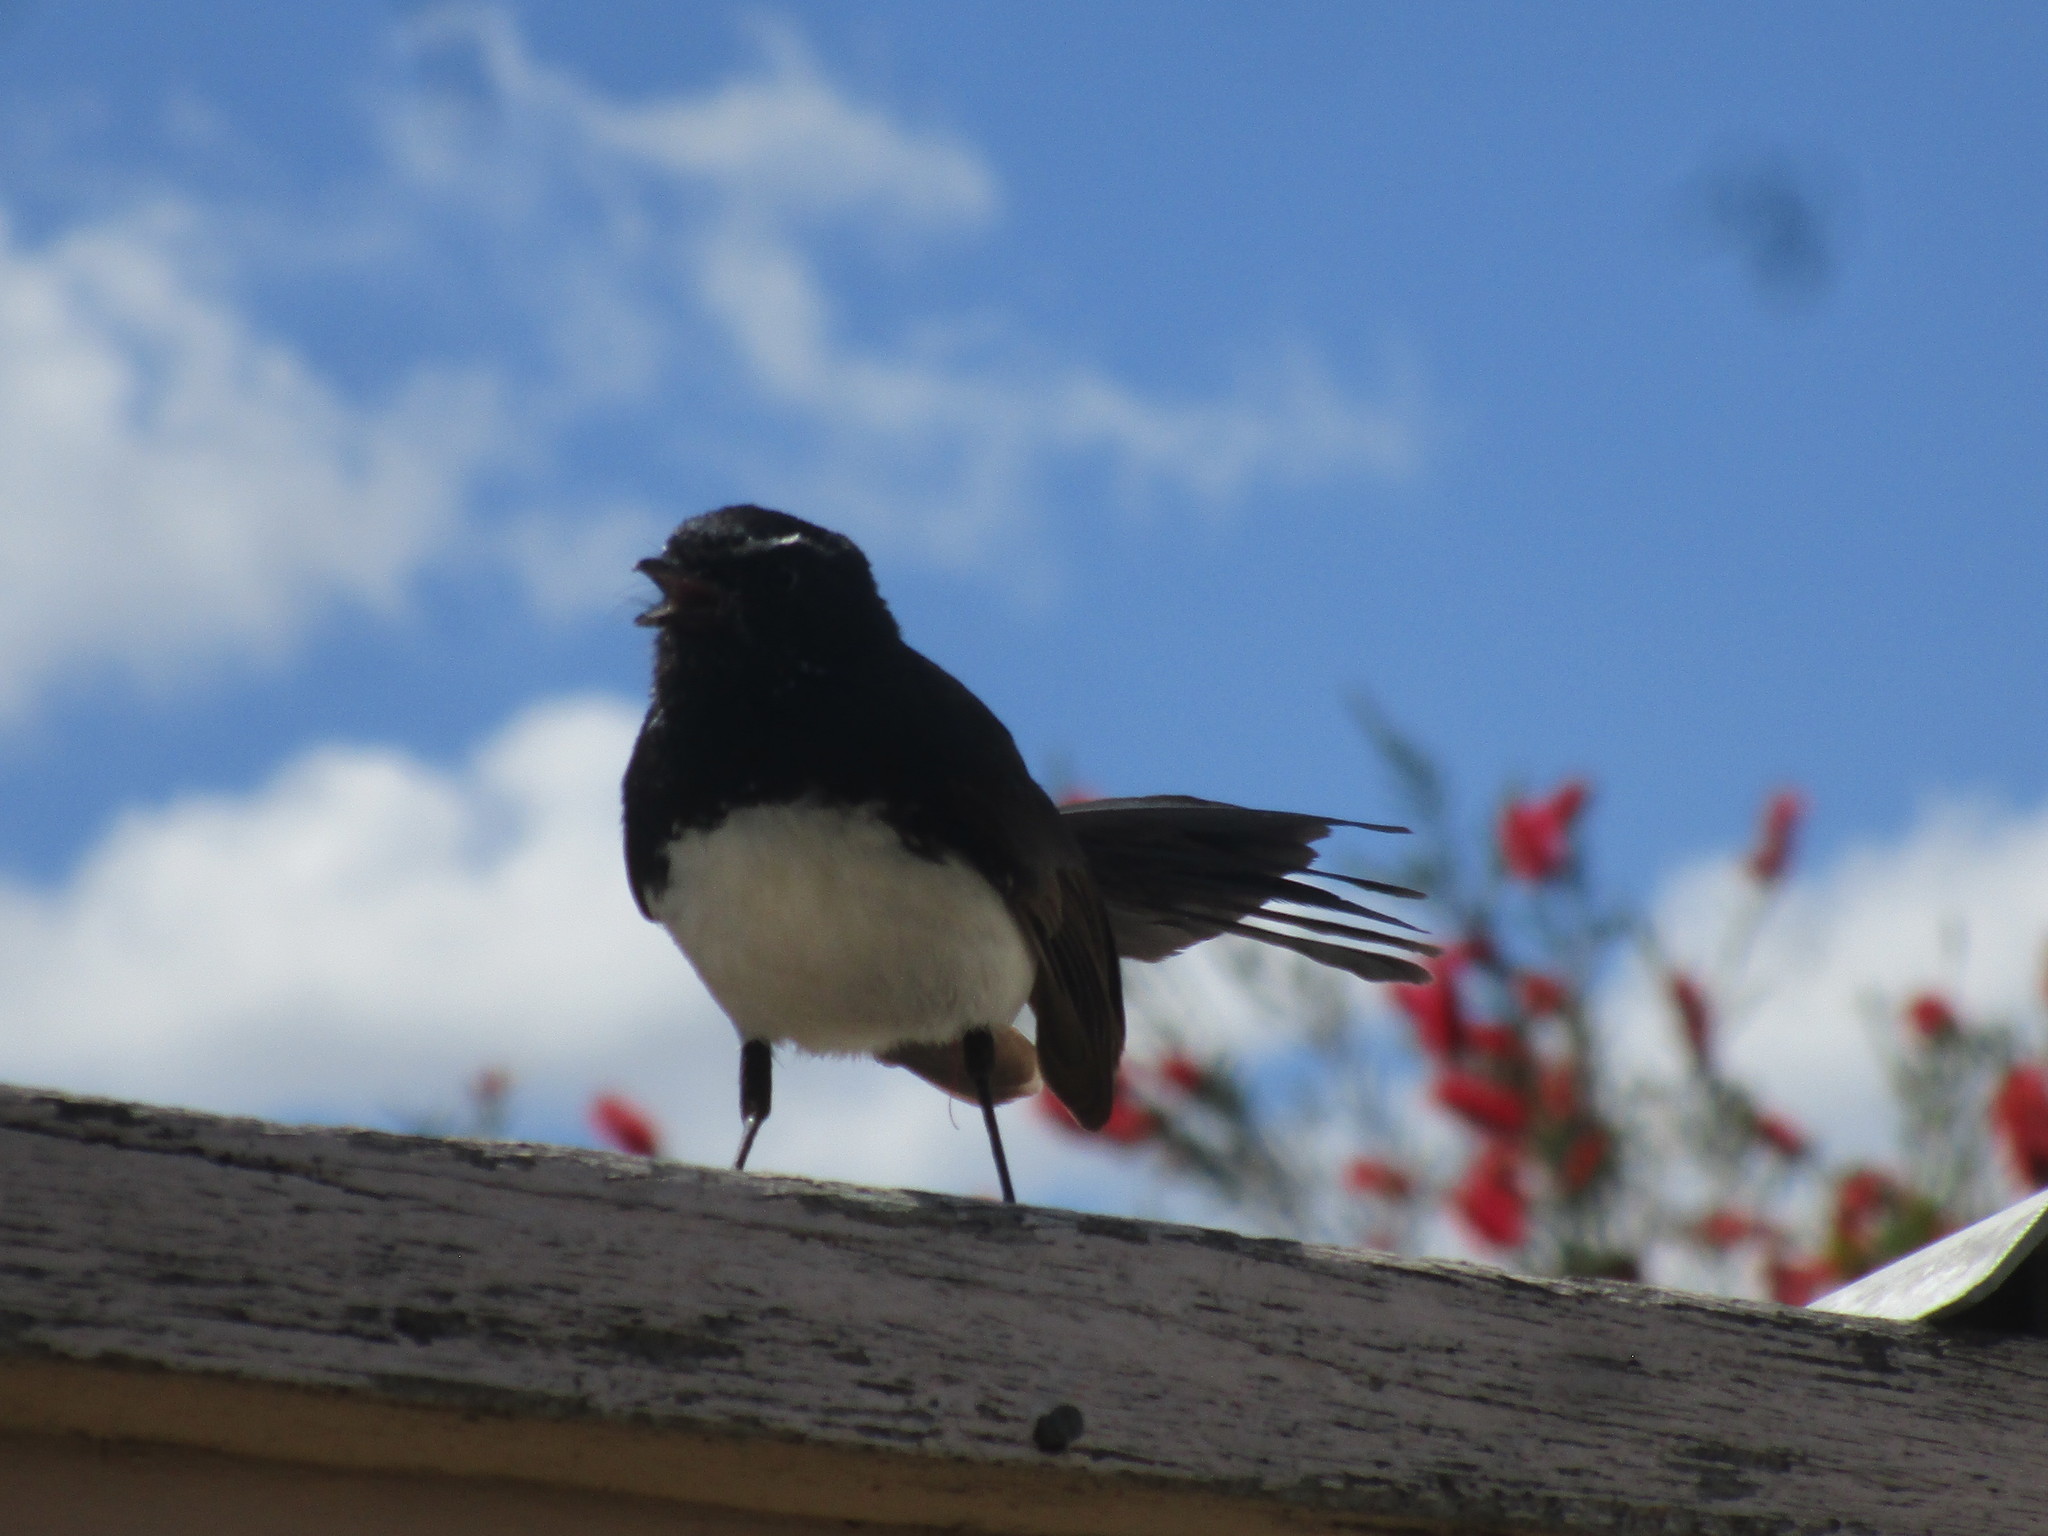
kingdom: Animalia
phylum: Chordata
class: Aves
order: Passeriformes
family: Rhipiduridae
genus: Rhipidura
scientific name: Rhipidura leucophrys
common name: Willie wagtail
